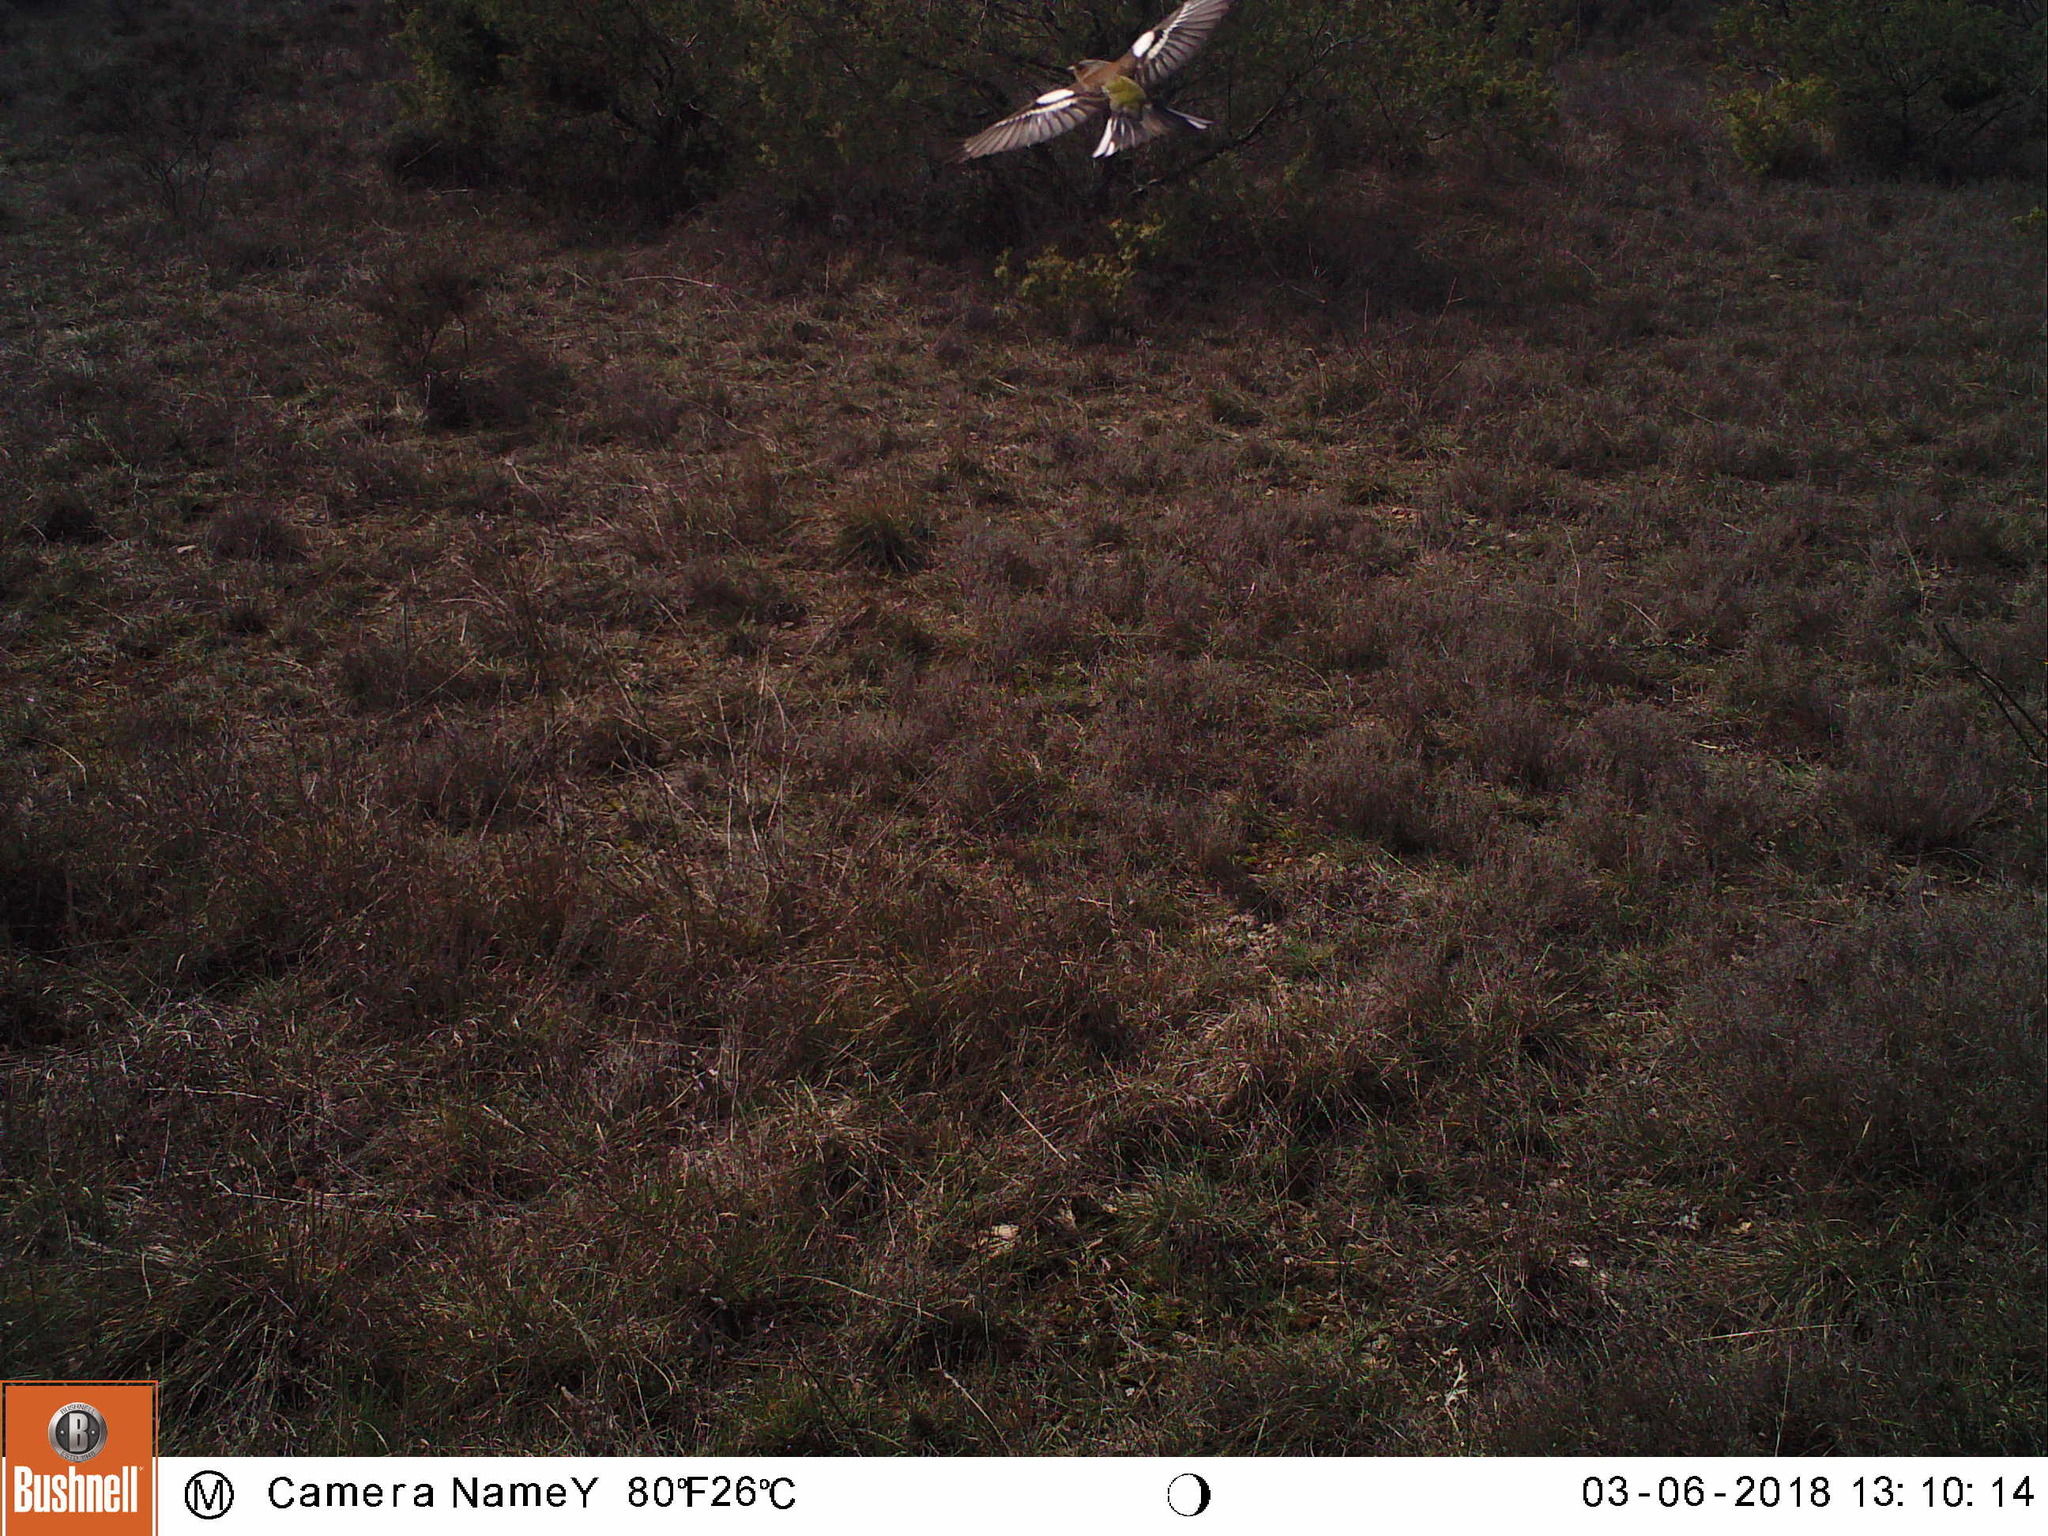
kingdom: Animalia
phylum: Chordata
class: Aves
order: Passeriformes
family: Fringillidae
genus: Fringilla
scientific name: Fringilla coelebs
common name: Common chaffinch
